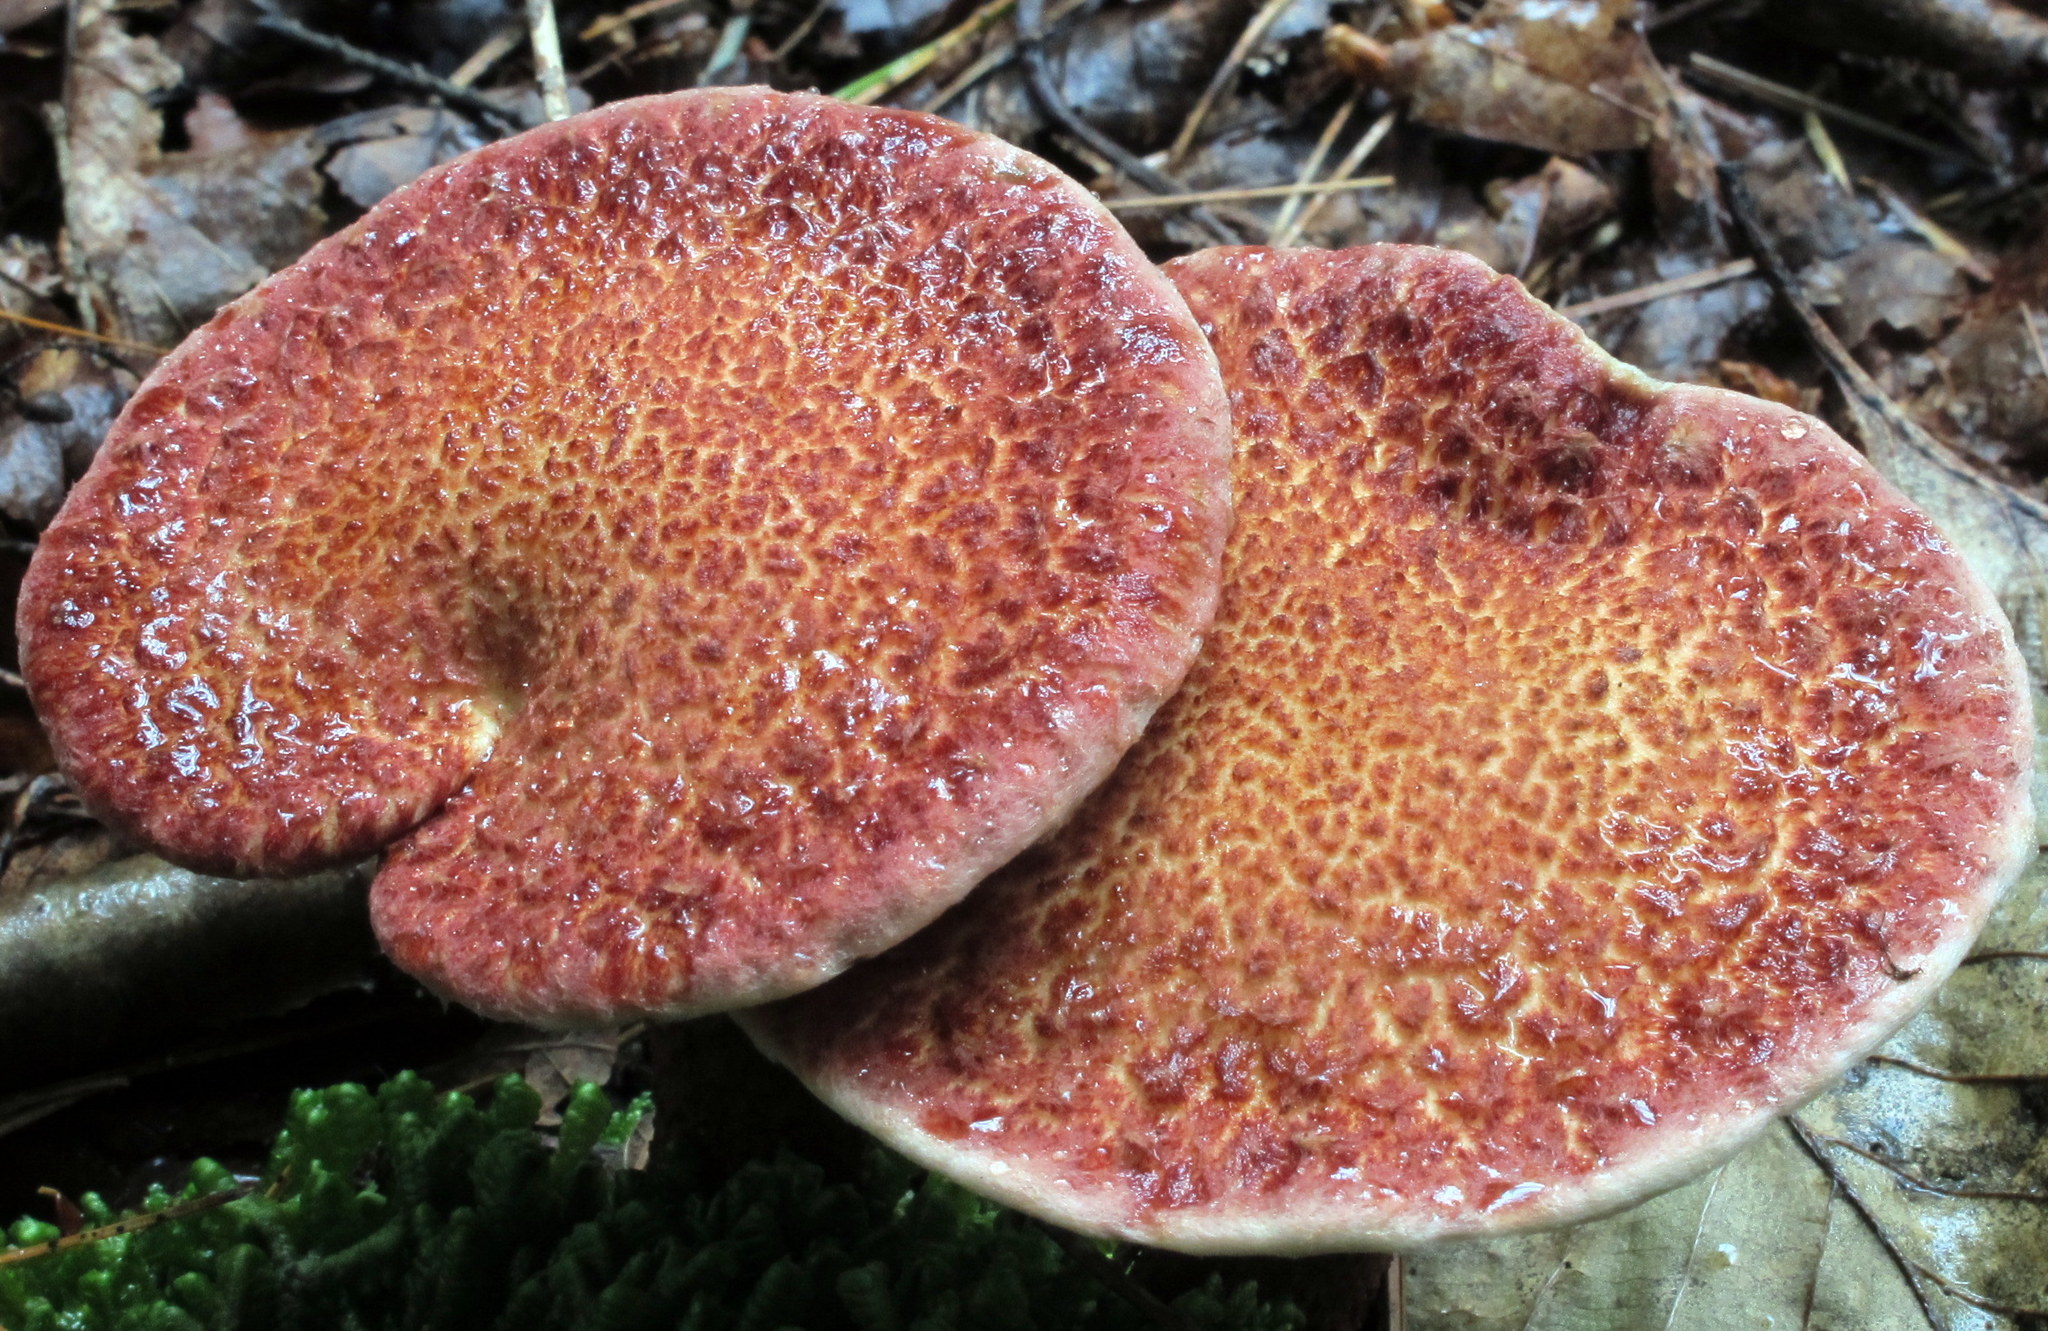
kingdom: Fungi
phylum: Basidiomycota
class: Agaricomycetes
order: Boletales
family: Suillaceae
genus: Suillus
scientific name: Suillus spraguei
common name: Painted suillus
